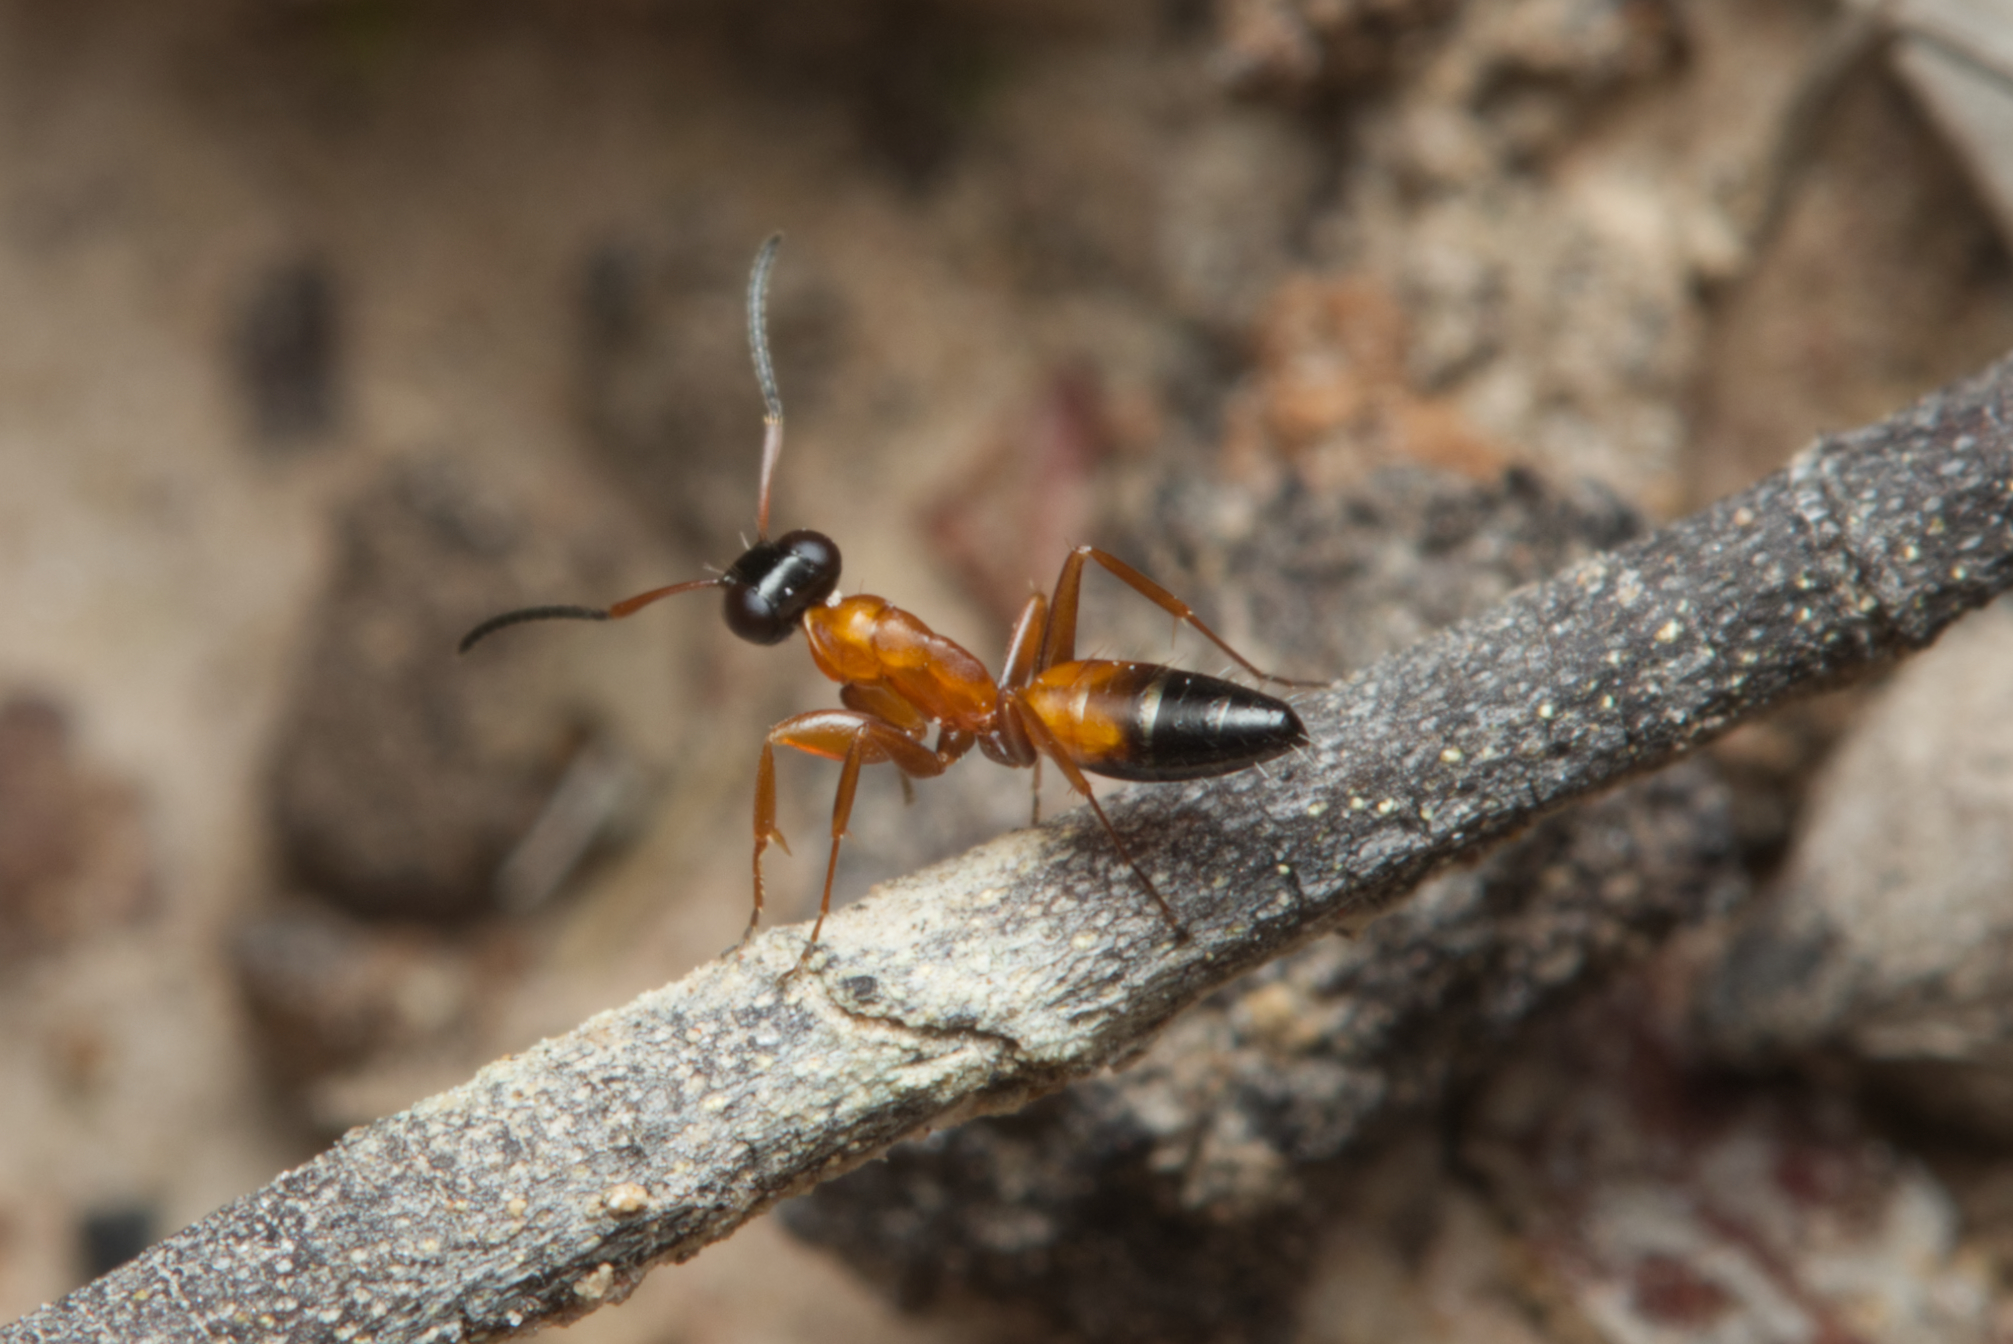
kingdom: Animalia
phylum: Arthropoda
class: Insecta
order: Hymenoptera
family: Formicidae
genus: Opisthopsis
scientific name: Opisthopsis rufithorax
